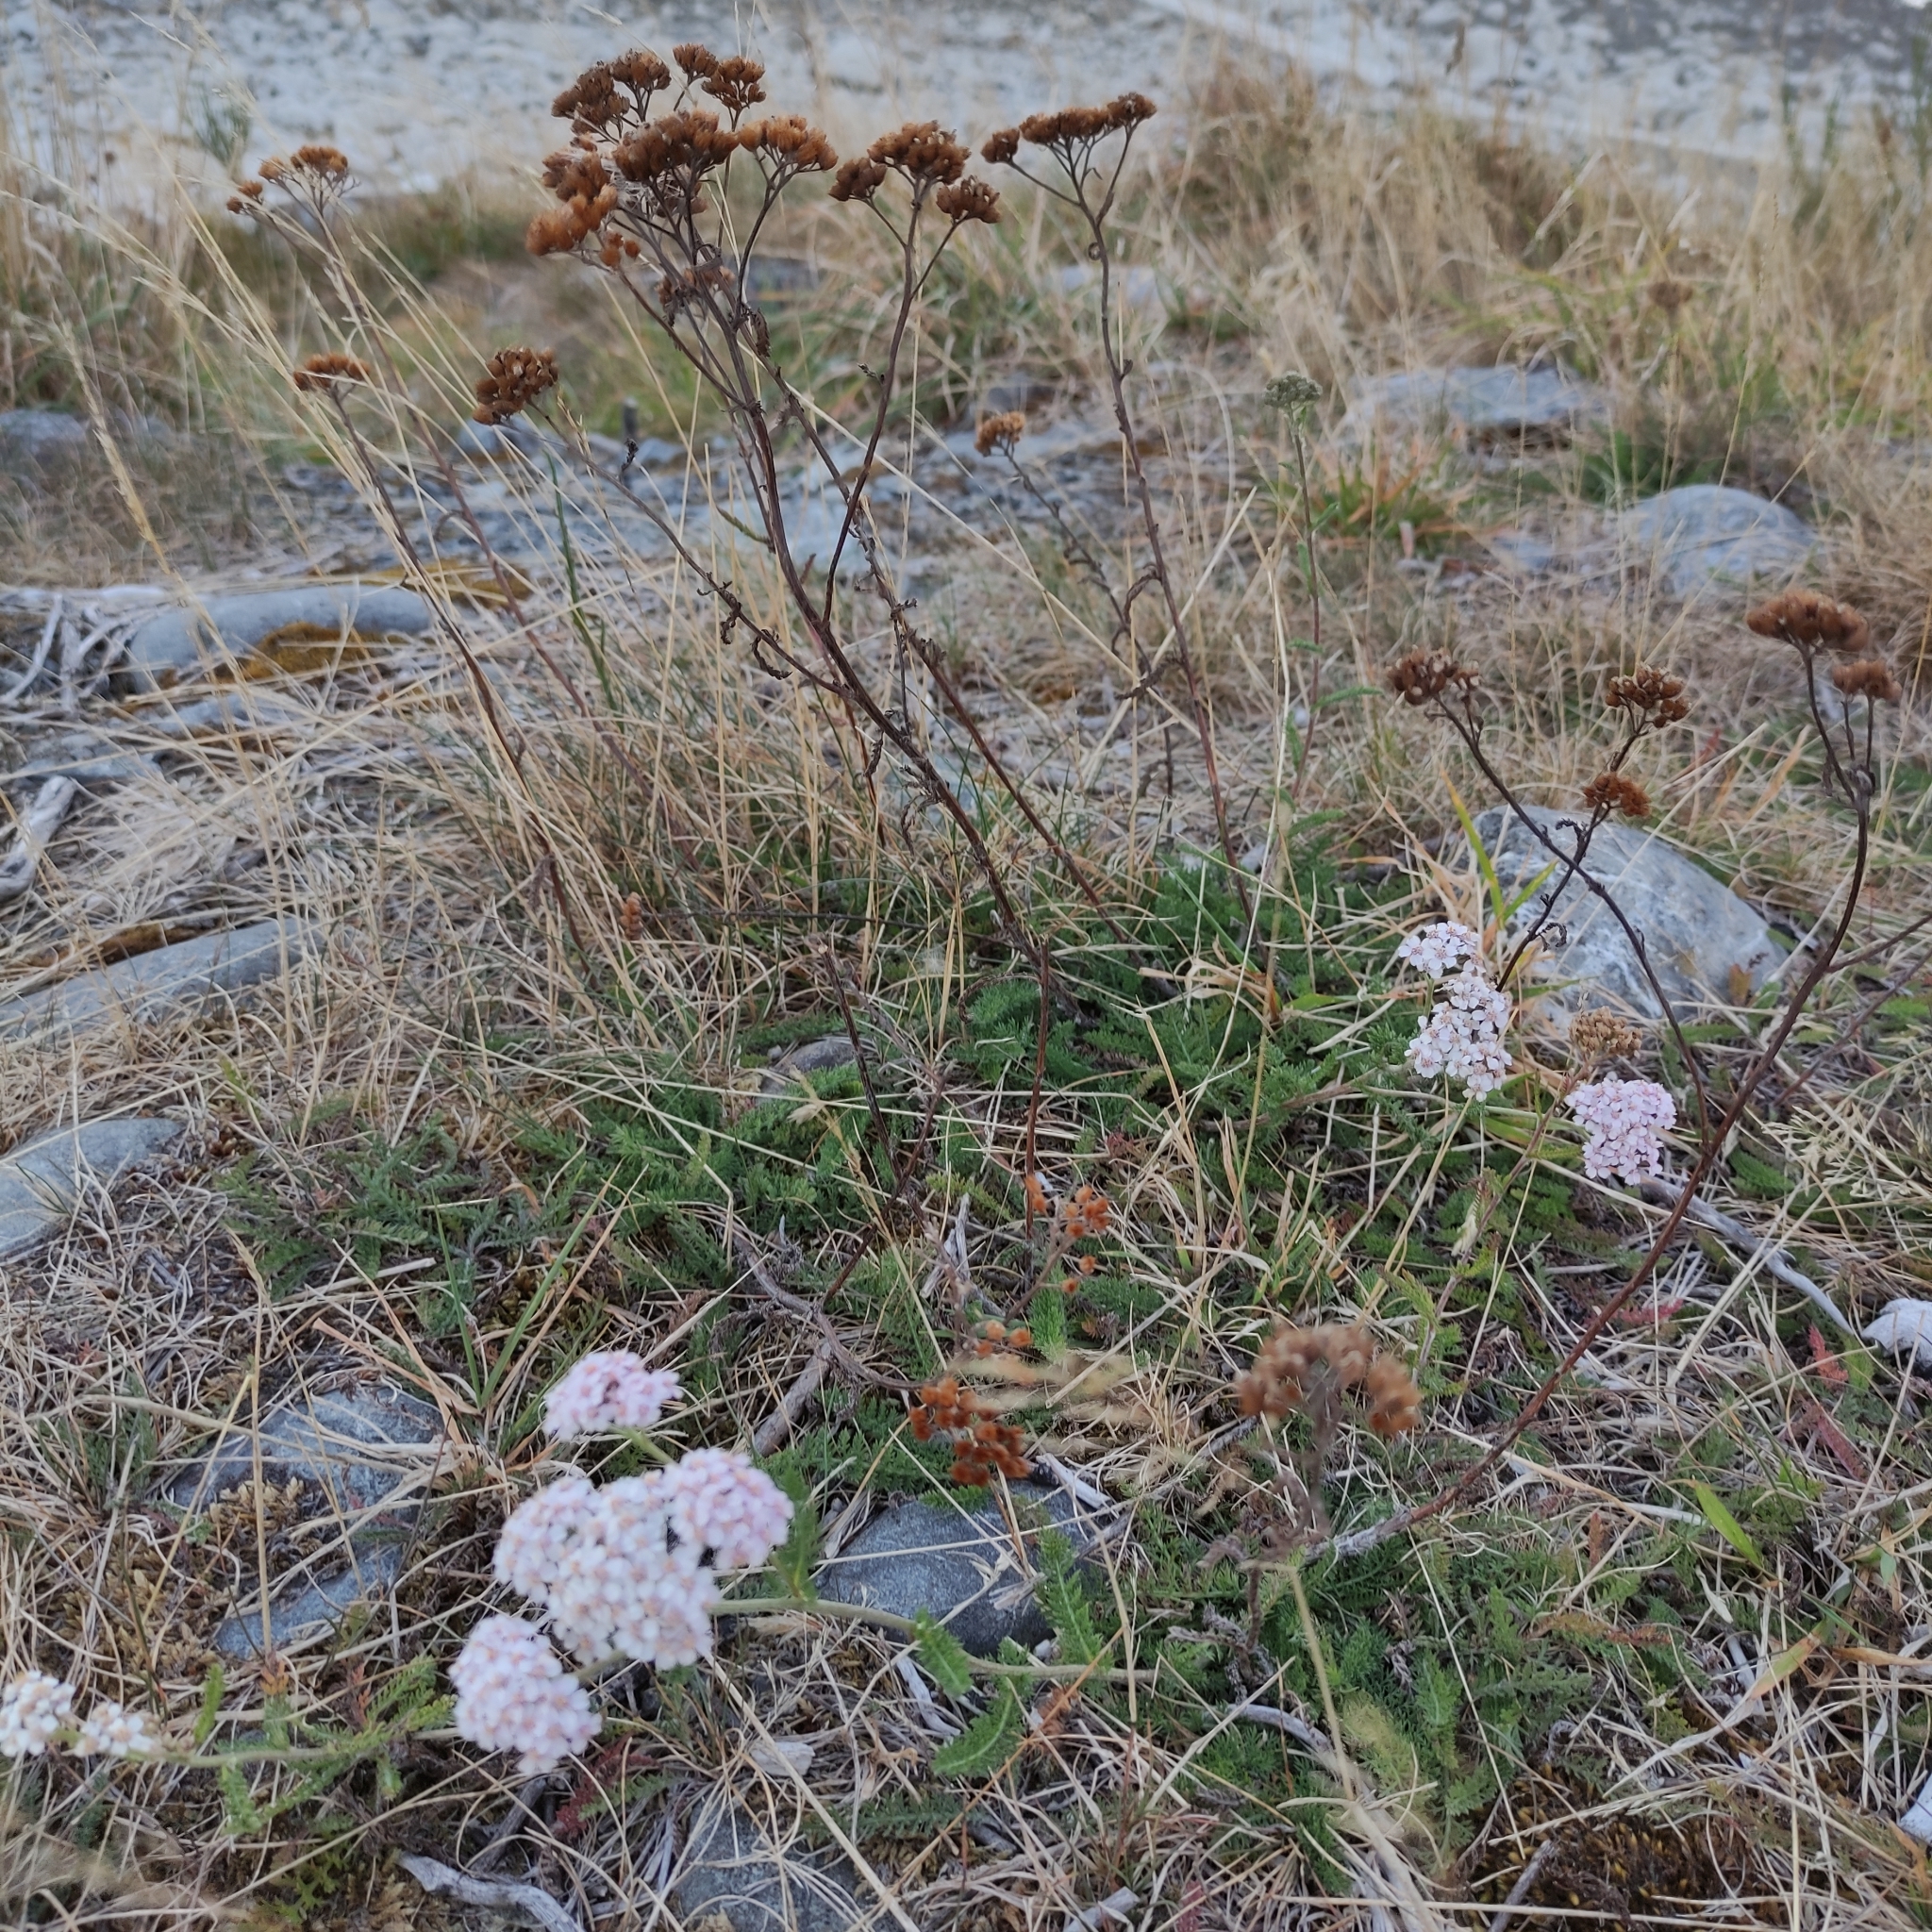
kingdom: Plantae
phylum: Tracheophyta
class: Magnoliopsida
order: Asterales
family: Asteraceae
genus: Achillea
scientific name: Achillea millefolium
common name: Yarrow
